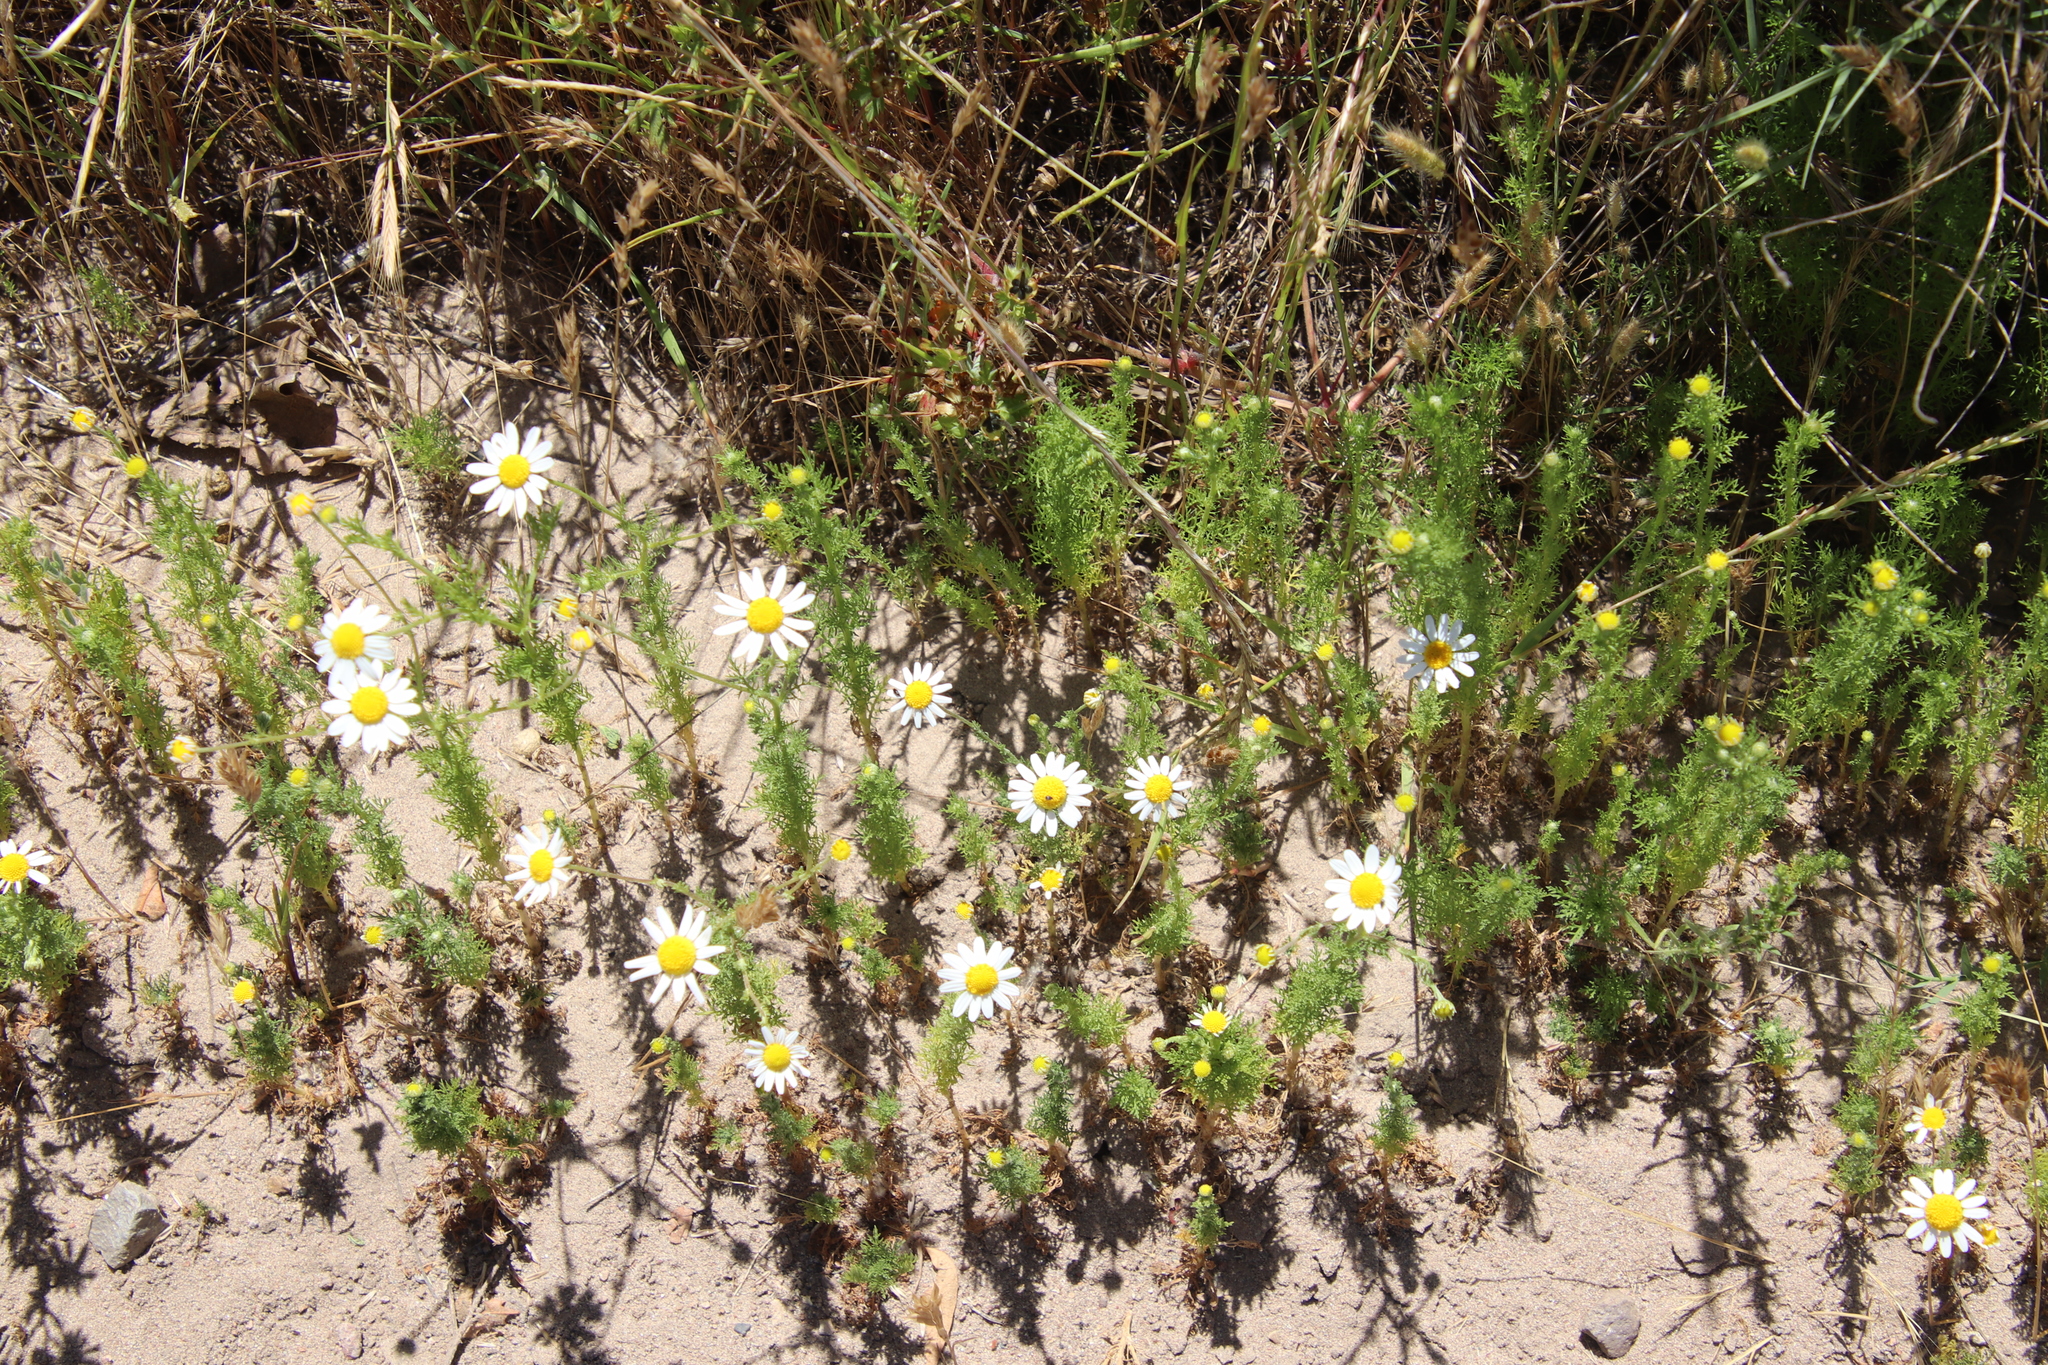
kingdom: Plantae
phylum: Tracheophyta
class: Magnoliopsida
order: Asterales
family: Asteraceae
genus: Anthemis
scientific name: Anthemis cotula
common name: Stinking chamomile
